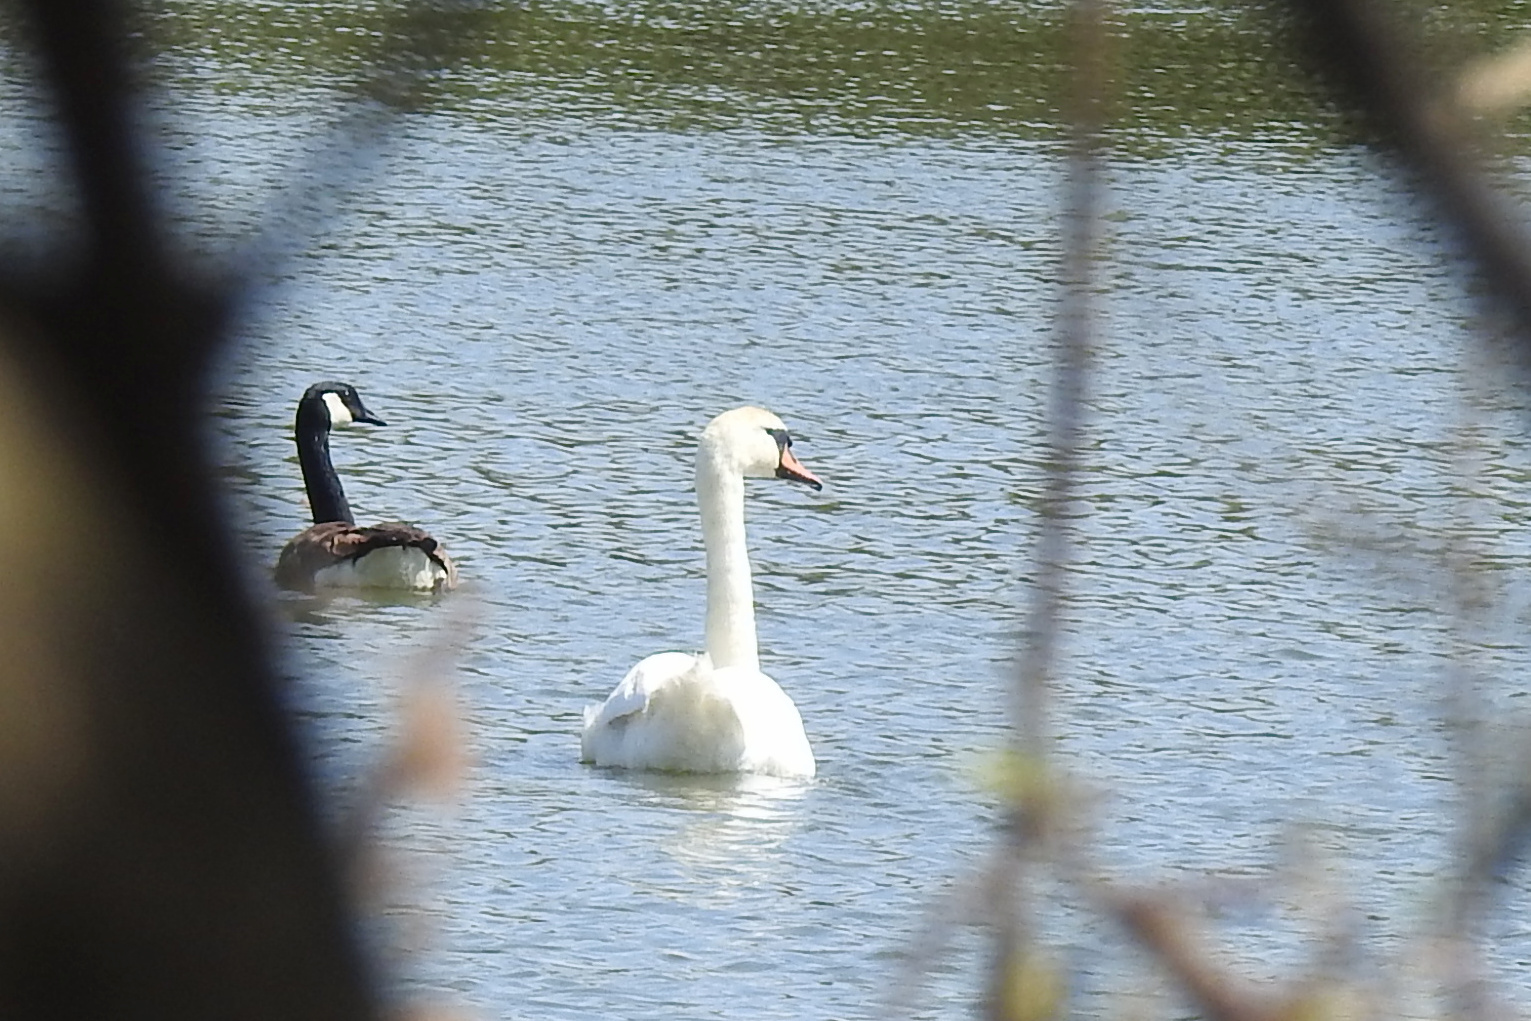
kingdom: Animalia
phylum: Chordata
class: Aves
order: Anseriformes
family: Anatidae
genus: Cygnus
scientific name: Cygnus olor
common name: Mute swan
